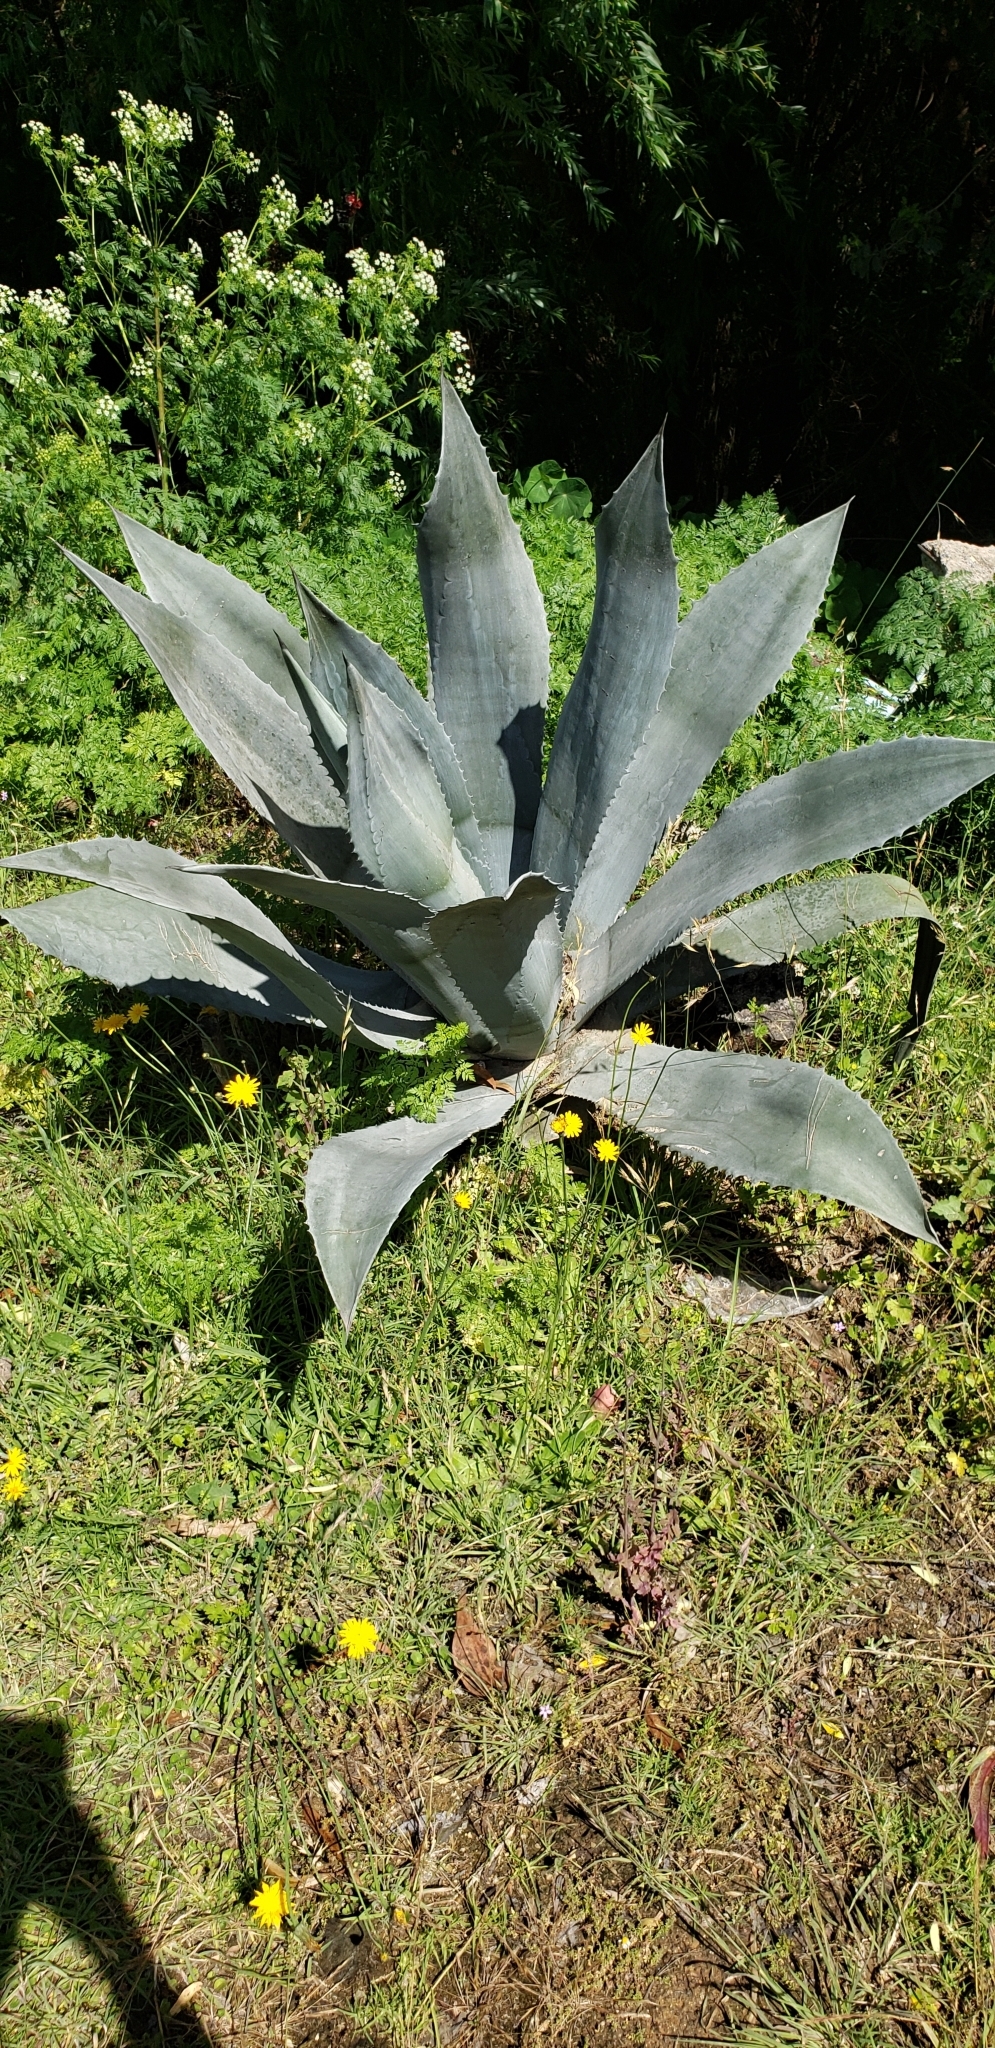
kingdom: Plantae
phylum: Tracheophyta
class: Liliopsida
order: Asparagales
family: Asparagaceae
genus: Agave
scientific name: Agave americana
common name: Centuryplant
